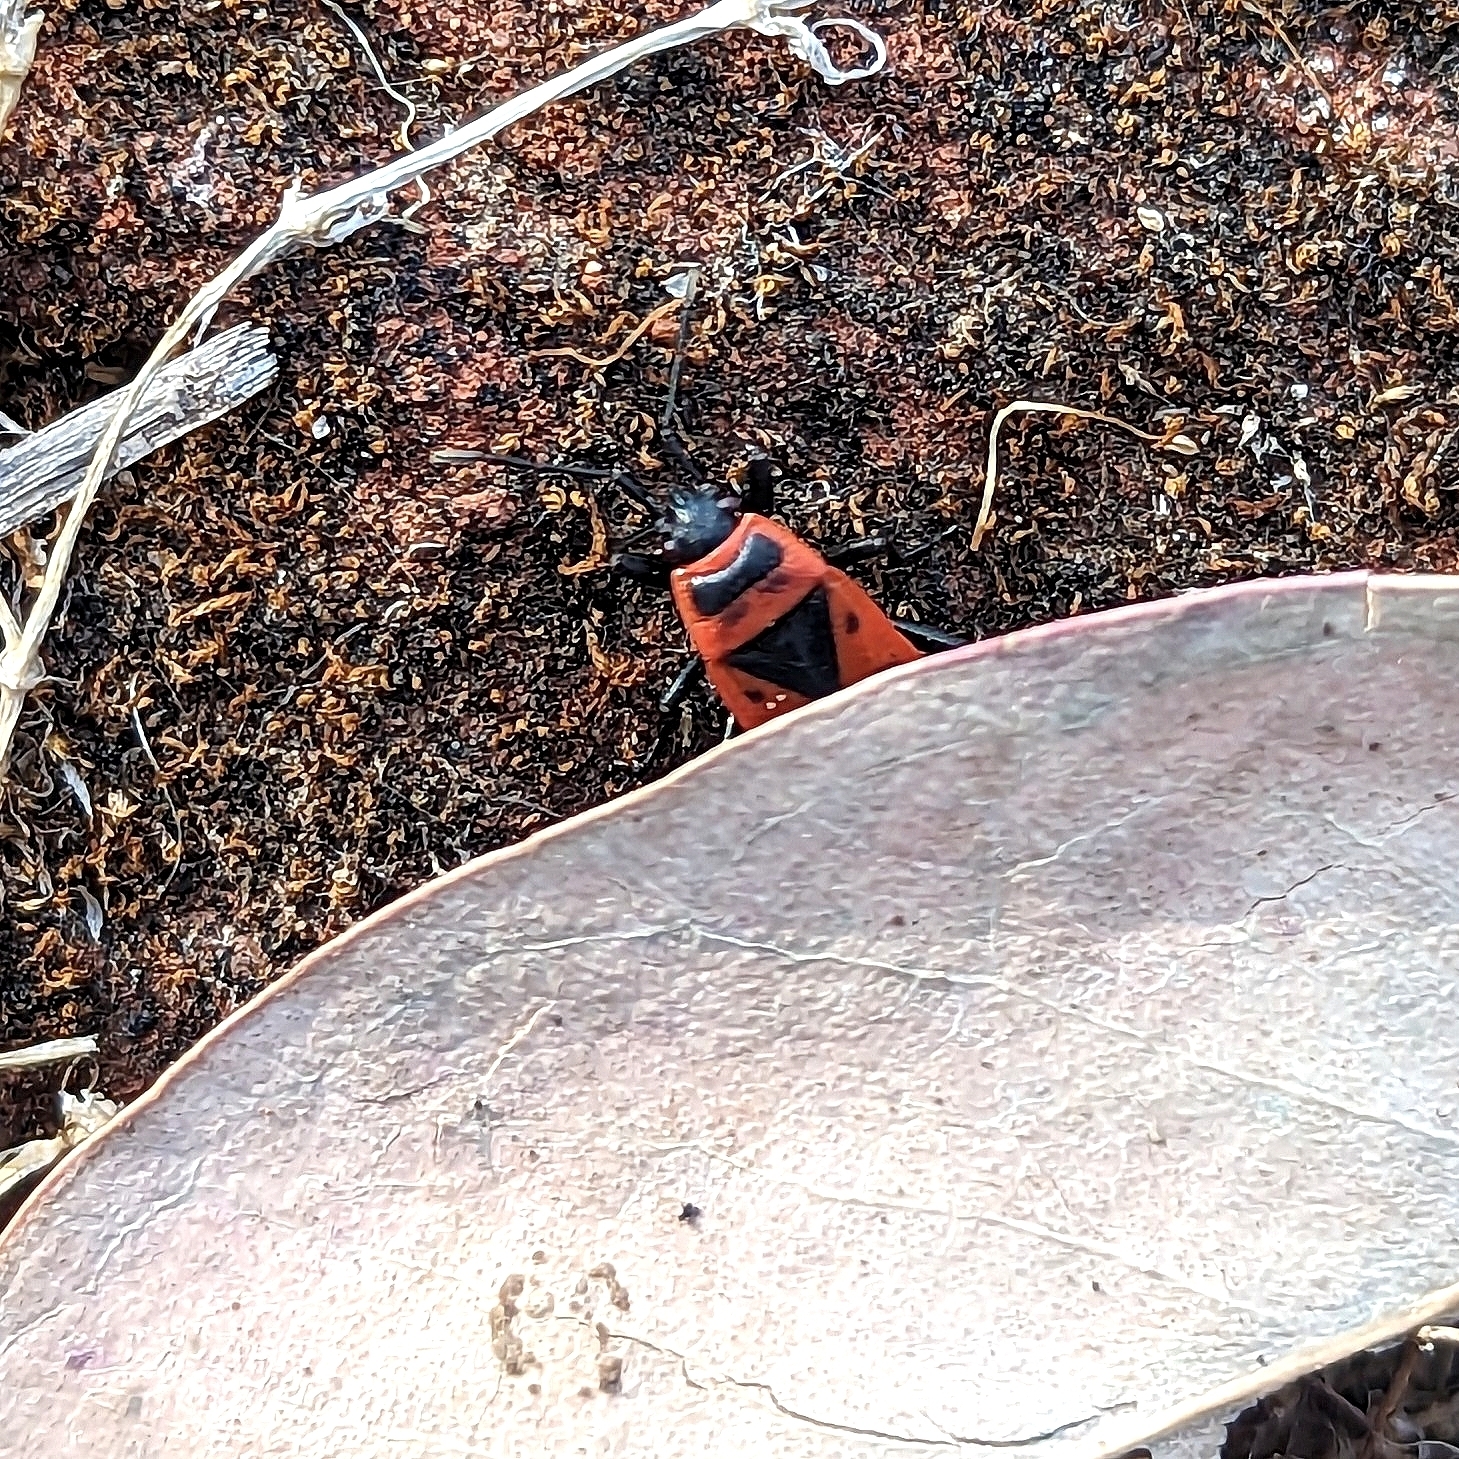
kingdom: Animalia
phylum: Arthropoda
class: Insecta
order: Hemiptera
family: Pyrrhocoridae
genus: Pyrrhocoris
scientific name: Pyrrhocoris apterus
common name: Firebug
